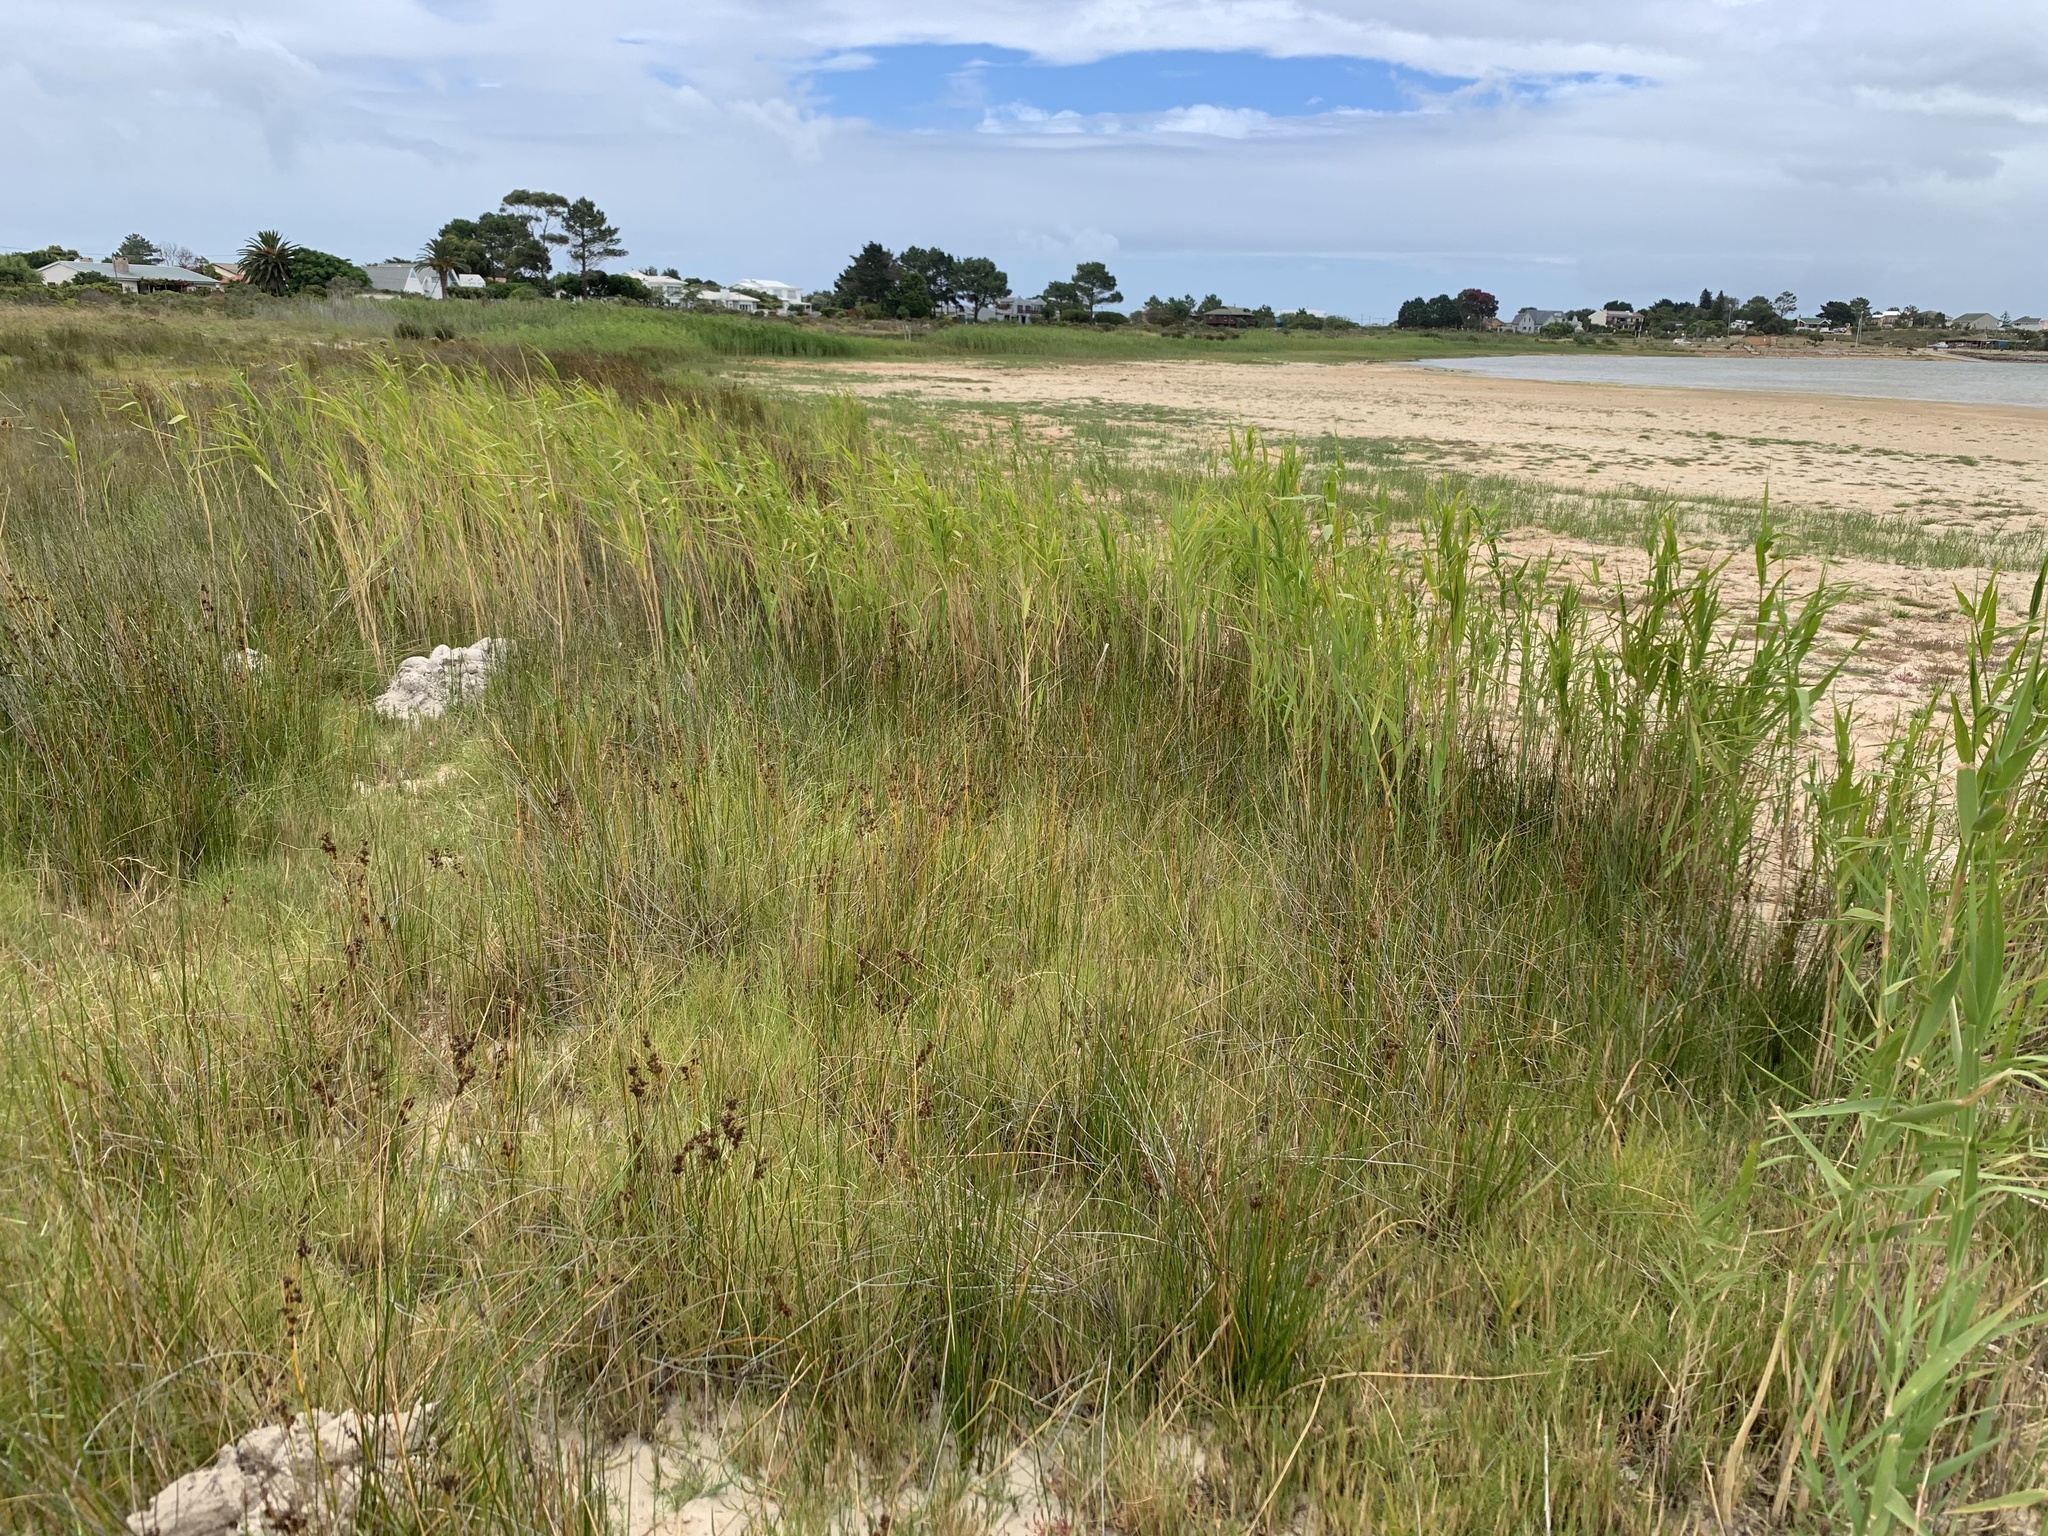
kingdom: Plantae
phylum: Tracheophyta
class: Liliopsida
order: Poales
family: Poaceae
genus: Phragmites
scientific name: Phragmites australis
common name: Common reed
